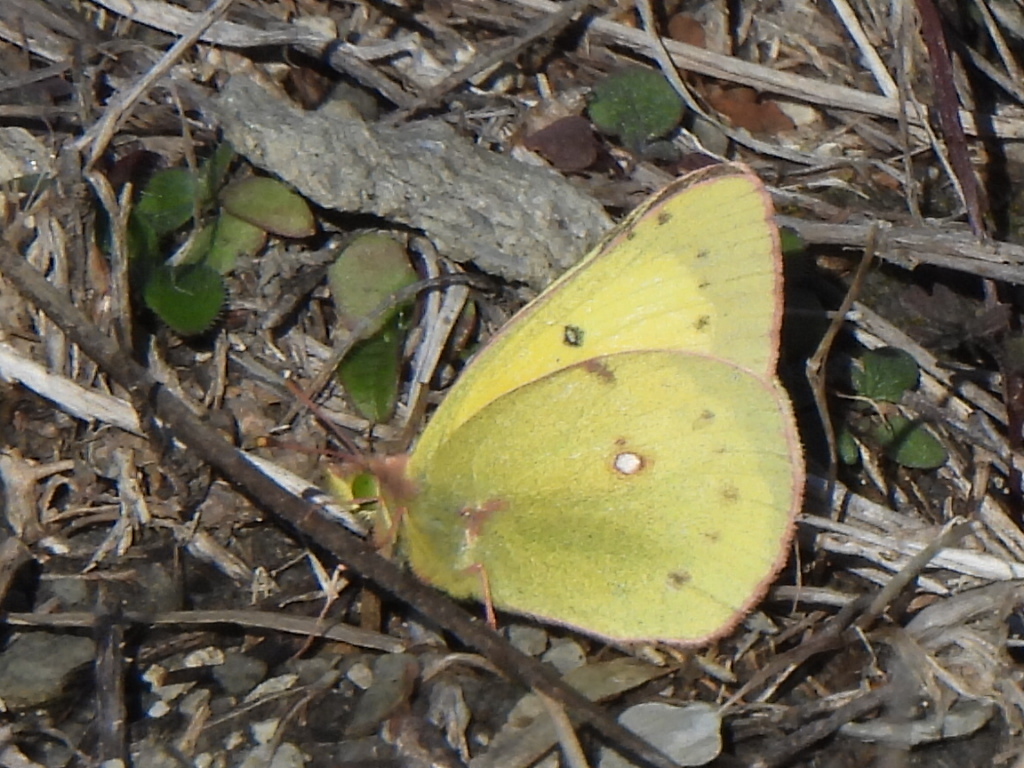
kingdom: Animalia
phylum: Arthropoda
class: Insecta
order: Lepidoptera
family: Pieridae
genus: Colias
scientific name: Colias eurytheme
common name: Alfalfa butterfly
